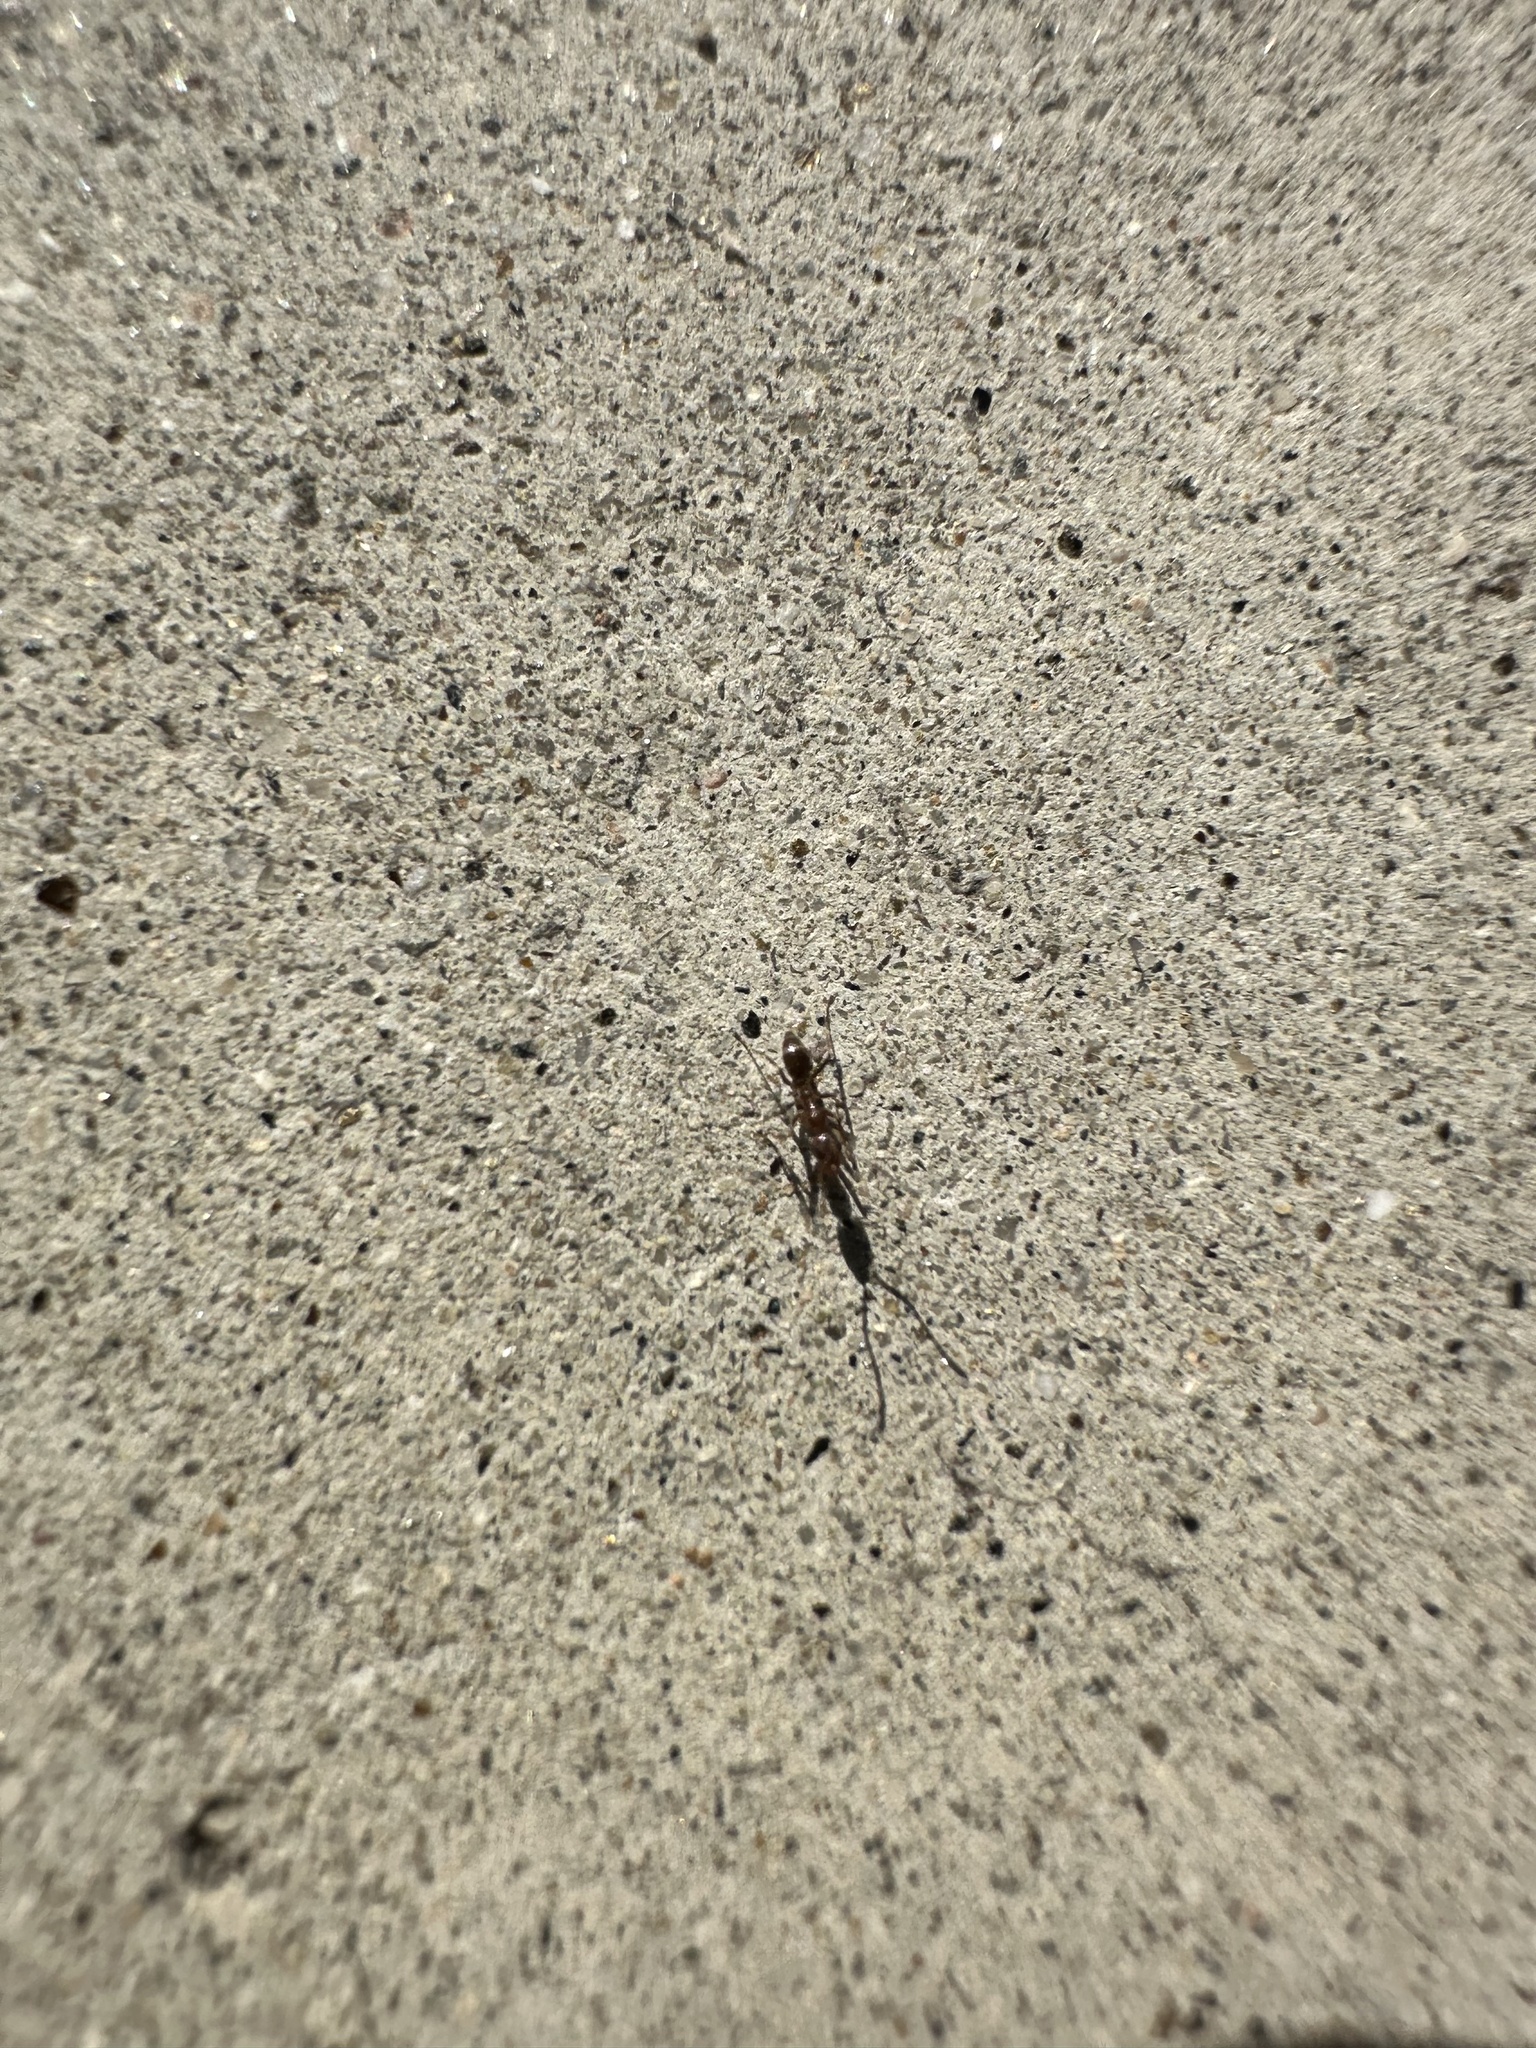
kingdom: Animalia
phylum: Arthropoda
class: Insecta
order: Hymenoptera
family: Formicidae
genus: Linepithema
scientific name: Linepithema humile
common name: Argentine ant
